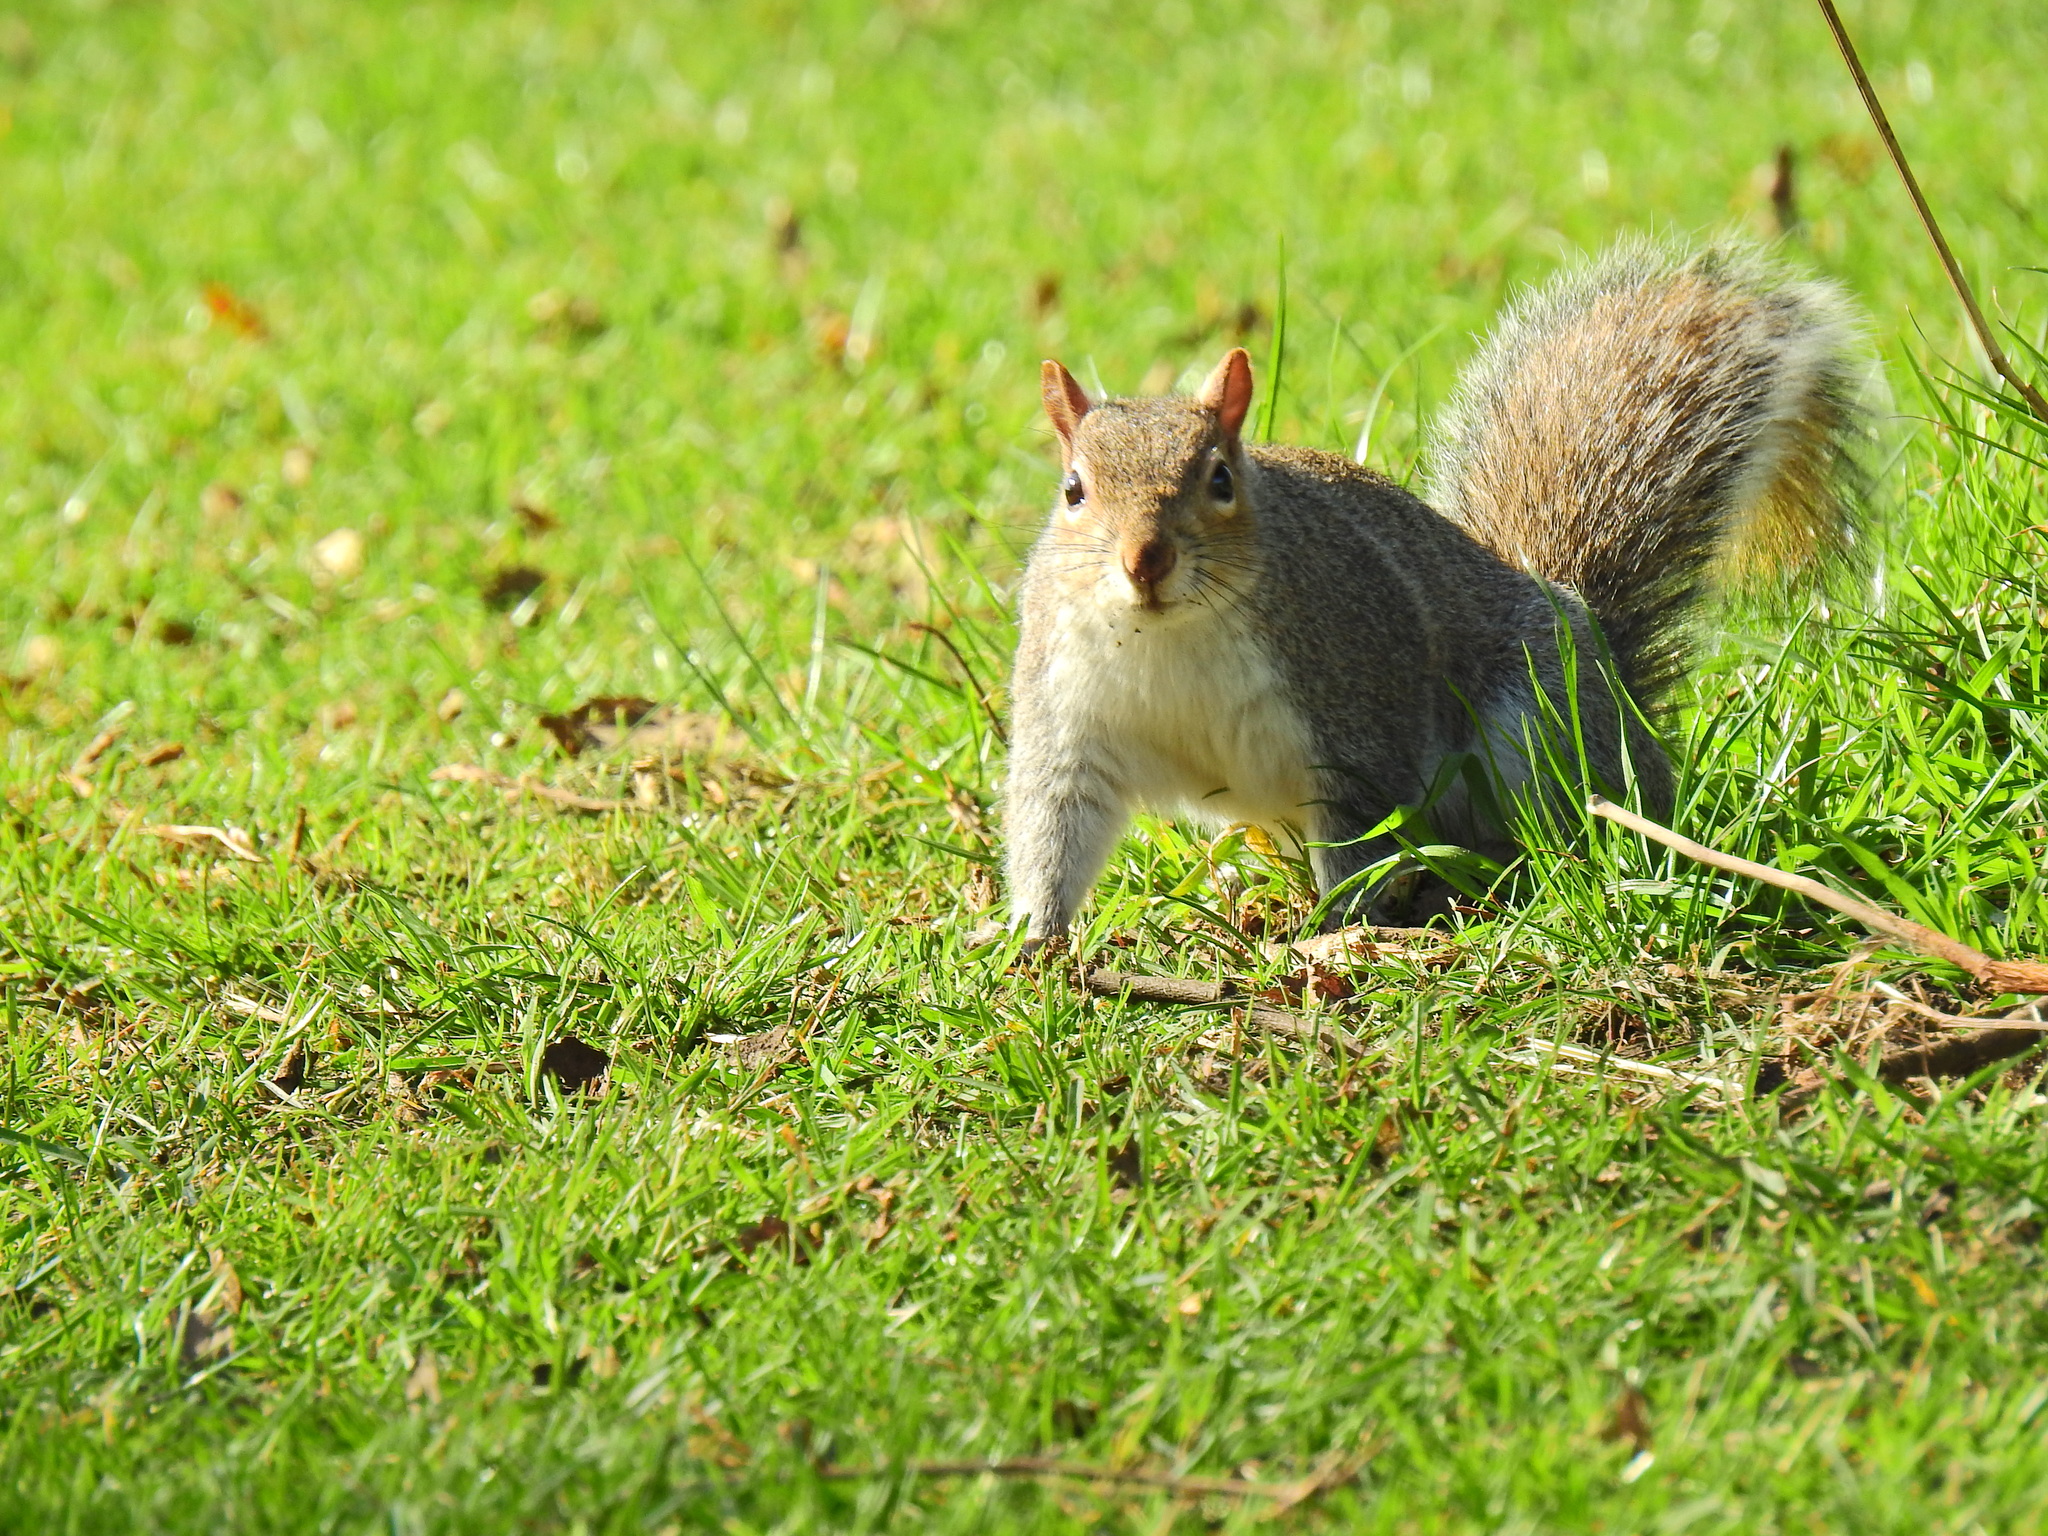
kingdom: Animalia
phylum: Chordata
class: Mammalia
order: Rodentia
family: Sciuridae
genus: Sciurus
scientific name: Sciurus carolinensis
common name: Eastern gray squirrel
